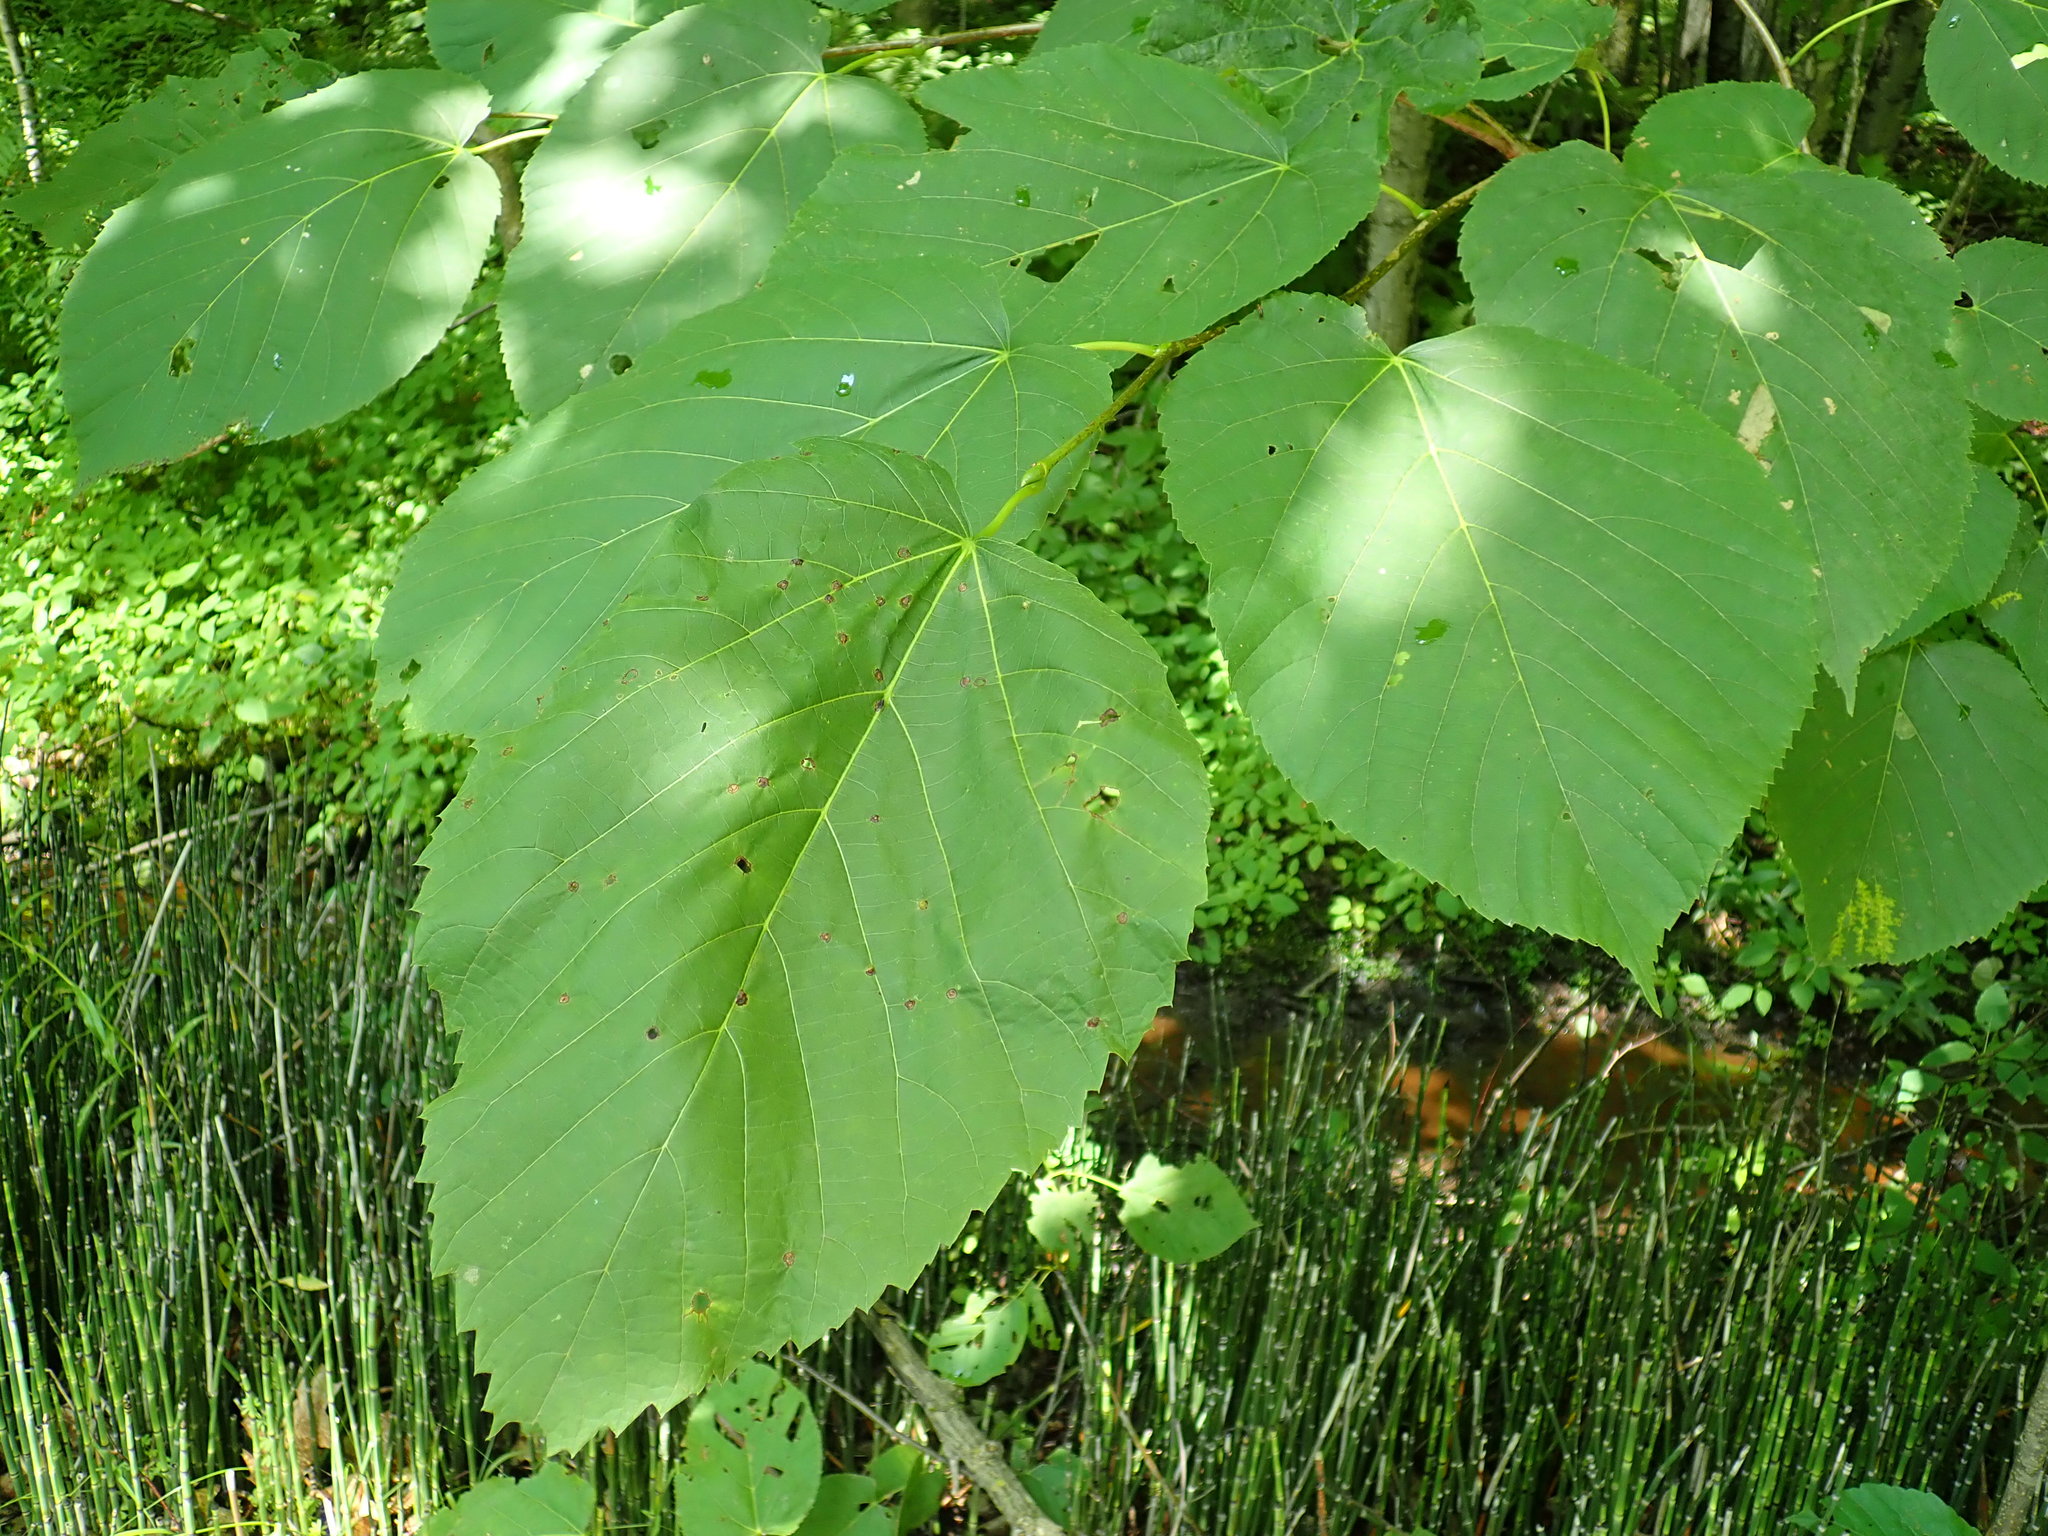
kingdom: Plantae
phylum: Tracheophyta
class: Magnoliopsida
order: Malvales
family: Malvaceae
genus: Tilia
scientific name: Tilia americana
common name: Basswood
